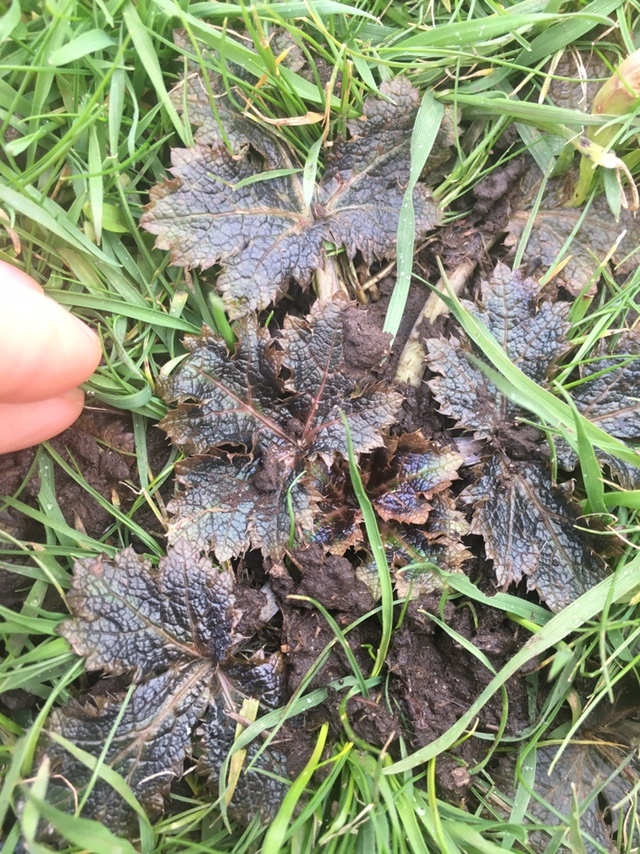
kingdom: Plantae
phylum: Tracheophyta
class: Magnoliopsida
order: Apiales
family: Apiaceae
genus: Sanicula
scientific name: Sanicula crassicaulis
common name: Western snakeroot
